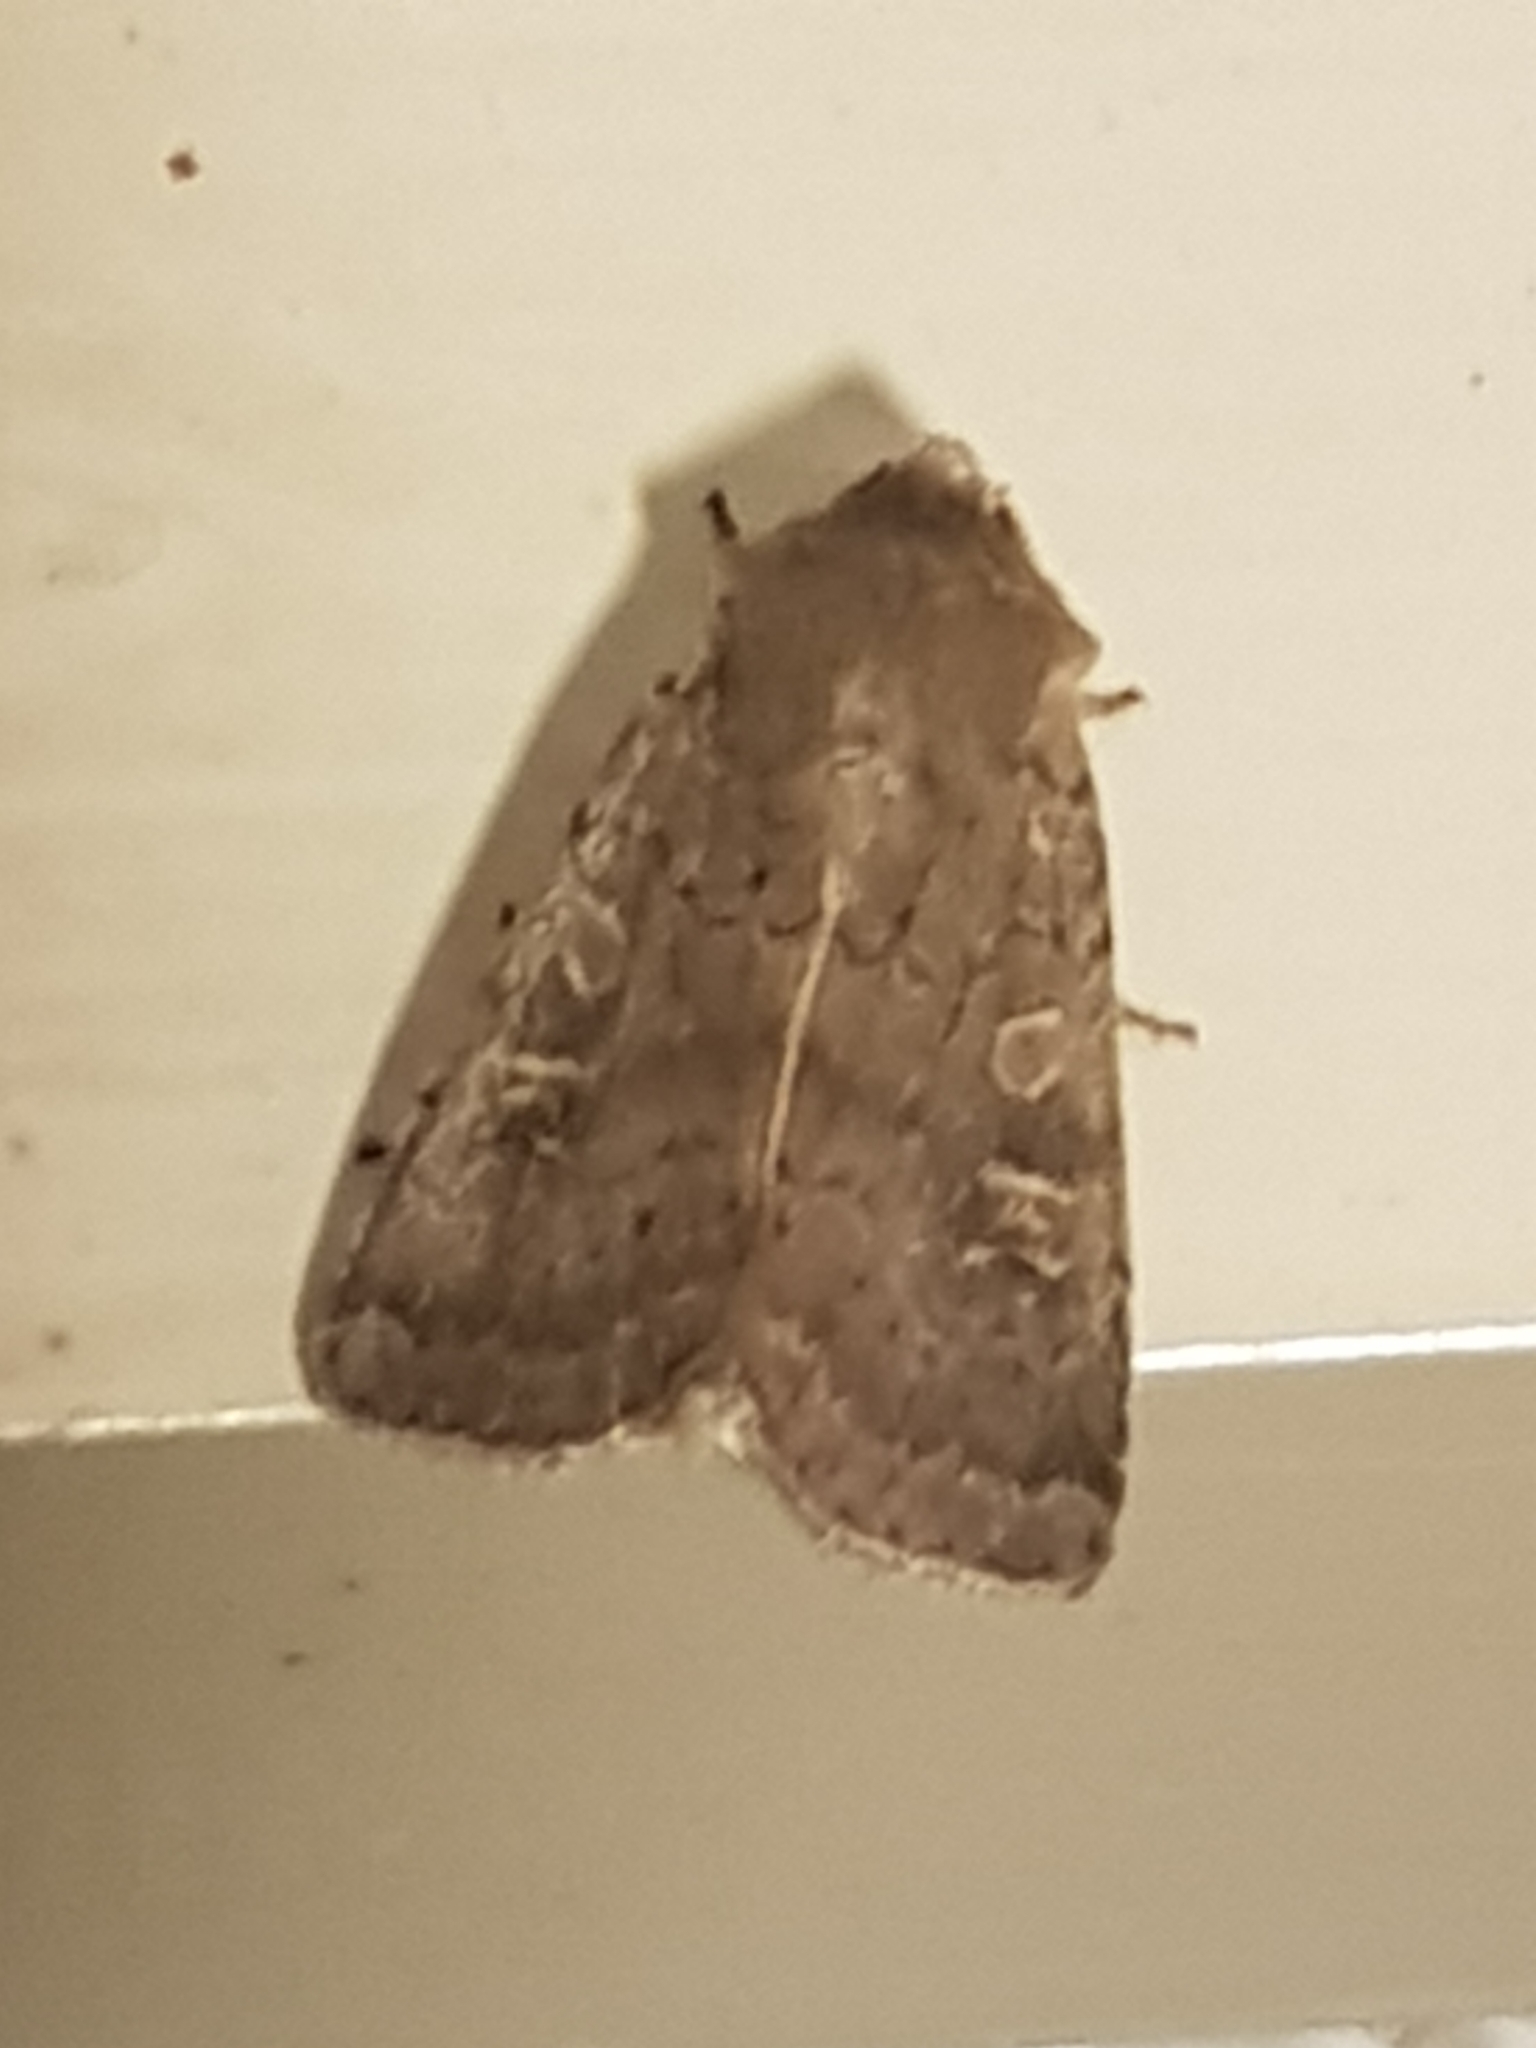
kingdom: Animalia
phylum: Arthropoda
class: Insecta
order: Lepidoptera
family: Noctuidae
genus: Xestia
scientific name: Xestia xanthographa
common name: Square-spot rustic
